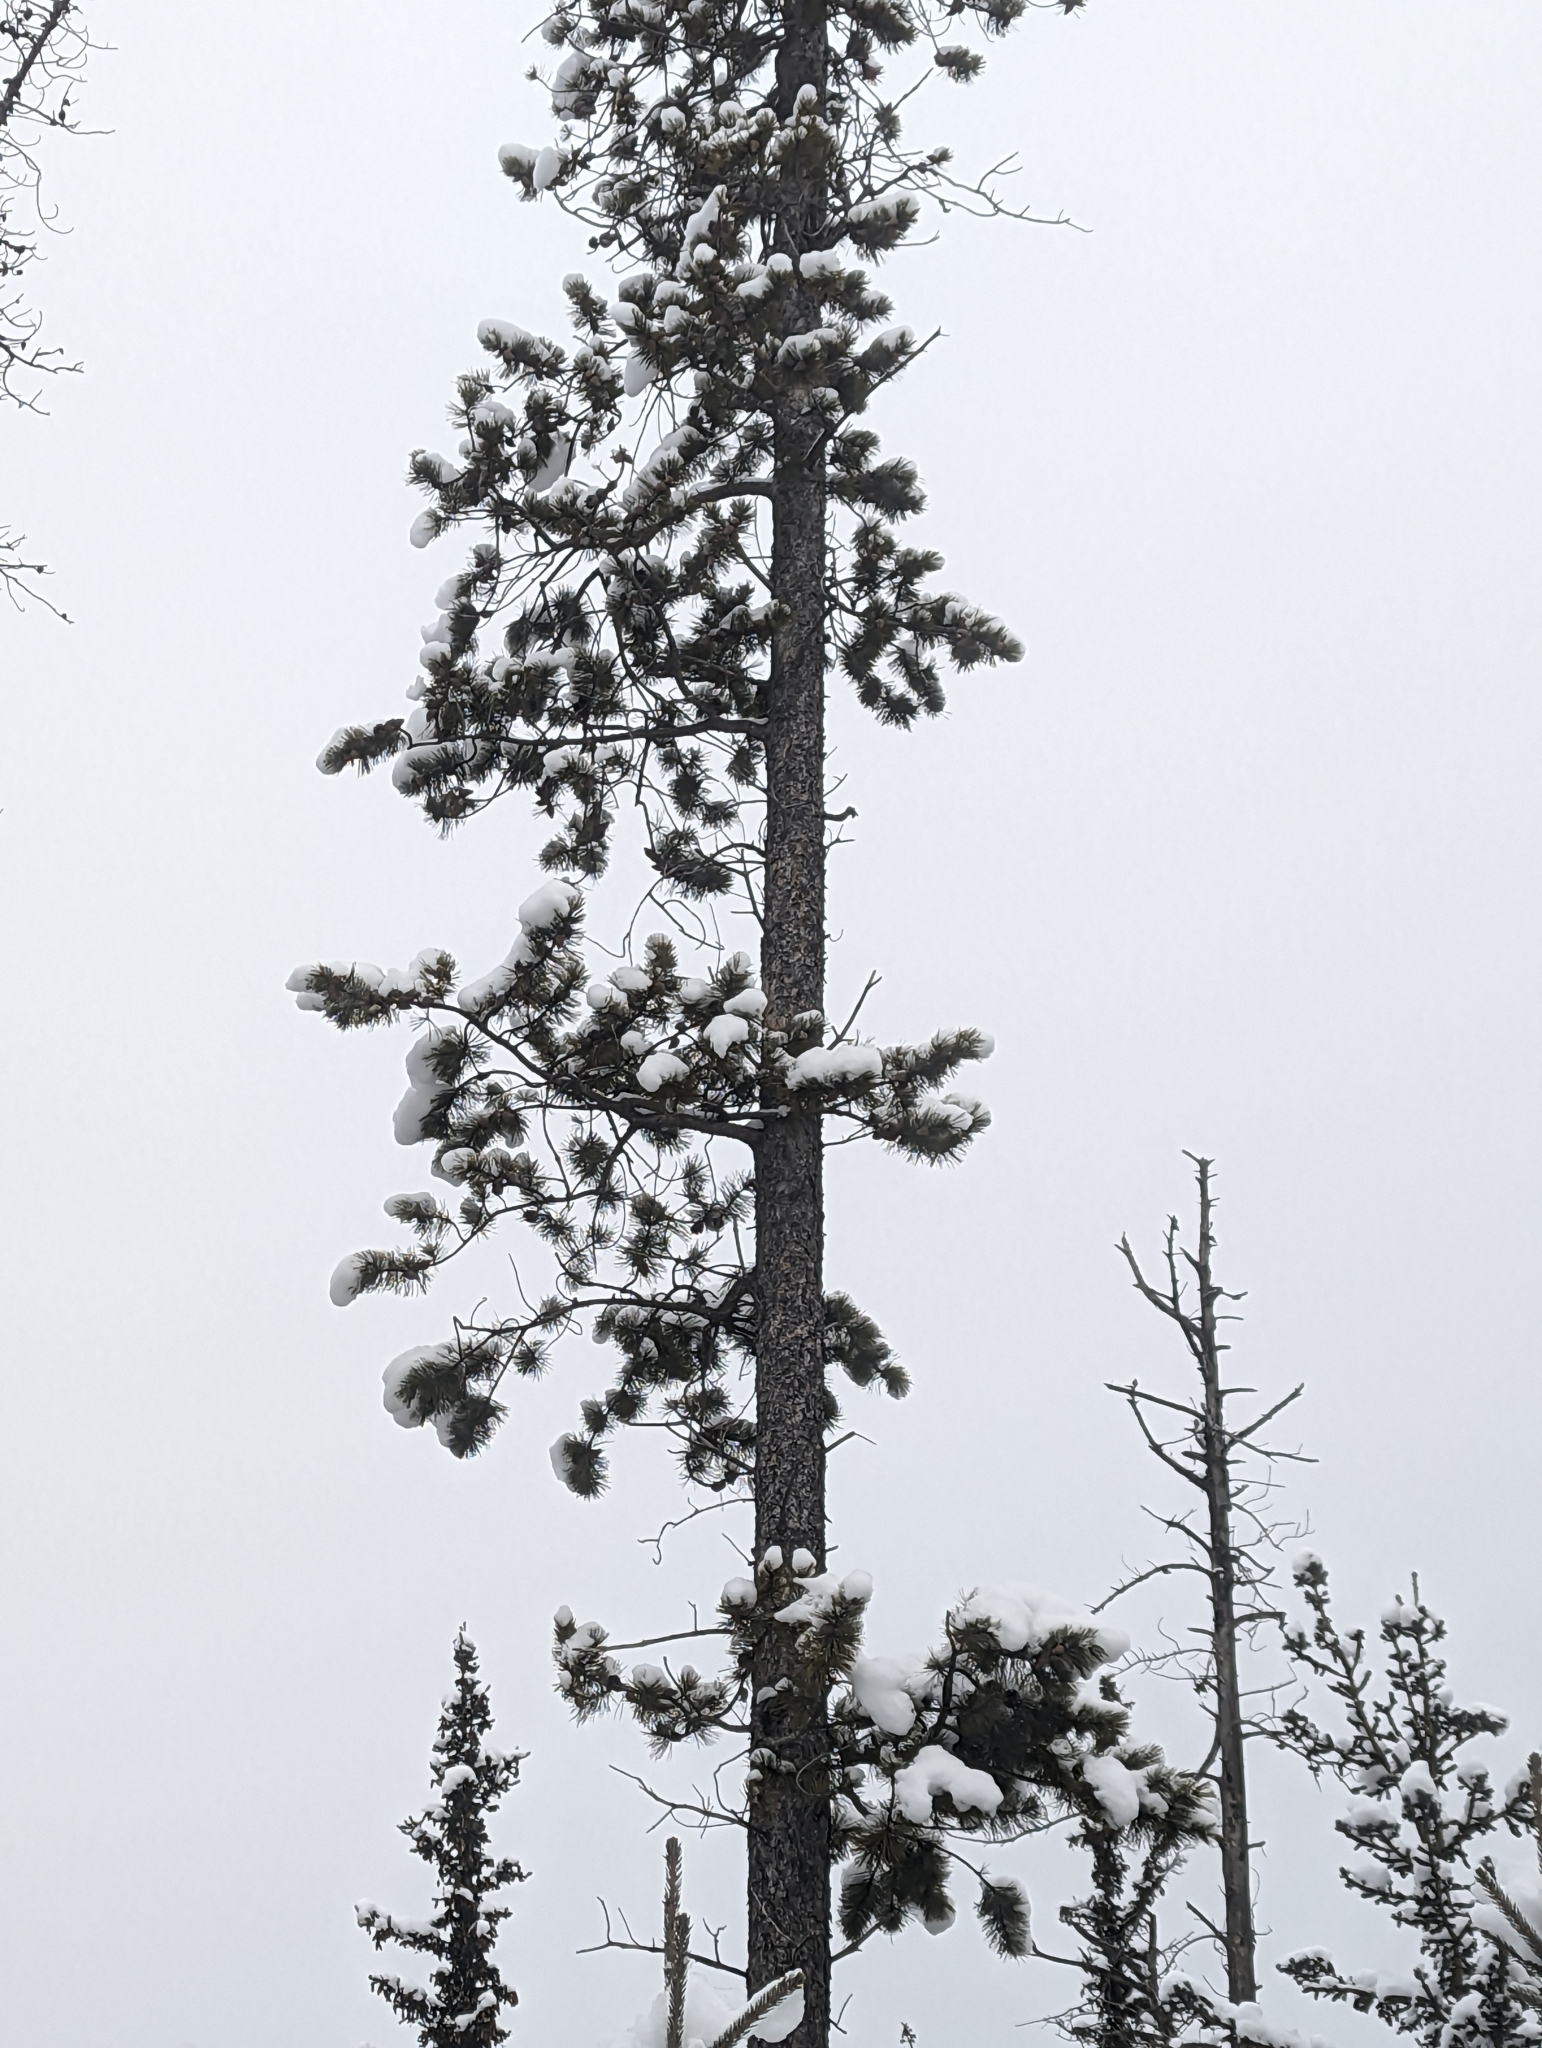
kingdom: Plantae
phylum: Tracheophyta
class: Pinopsida
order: Pinales
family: Pinaceae
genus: Pinus
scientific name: Pinus contorta
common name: Lodgepole pine
